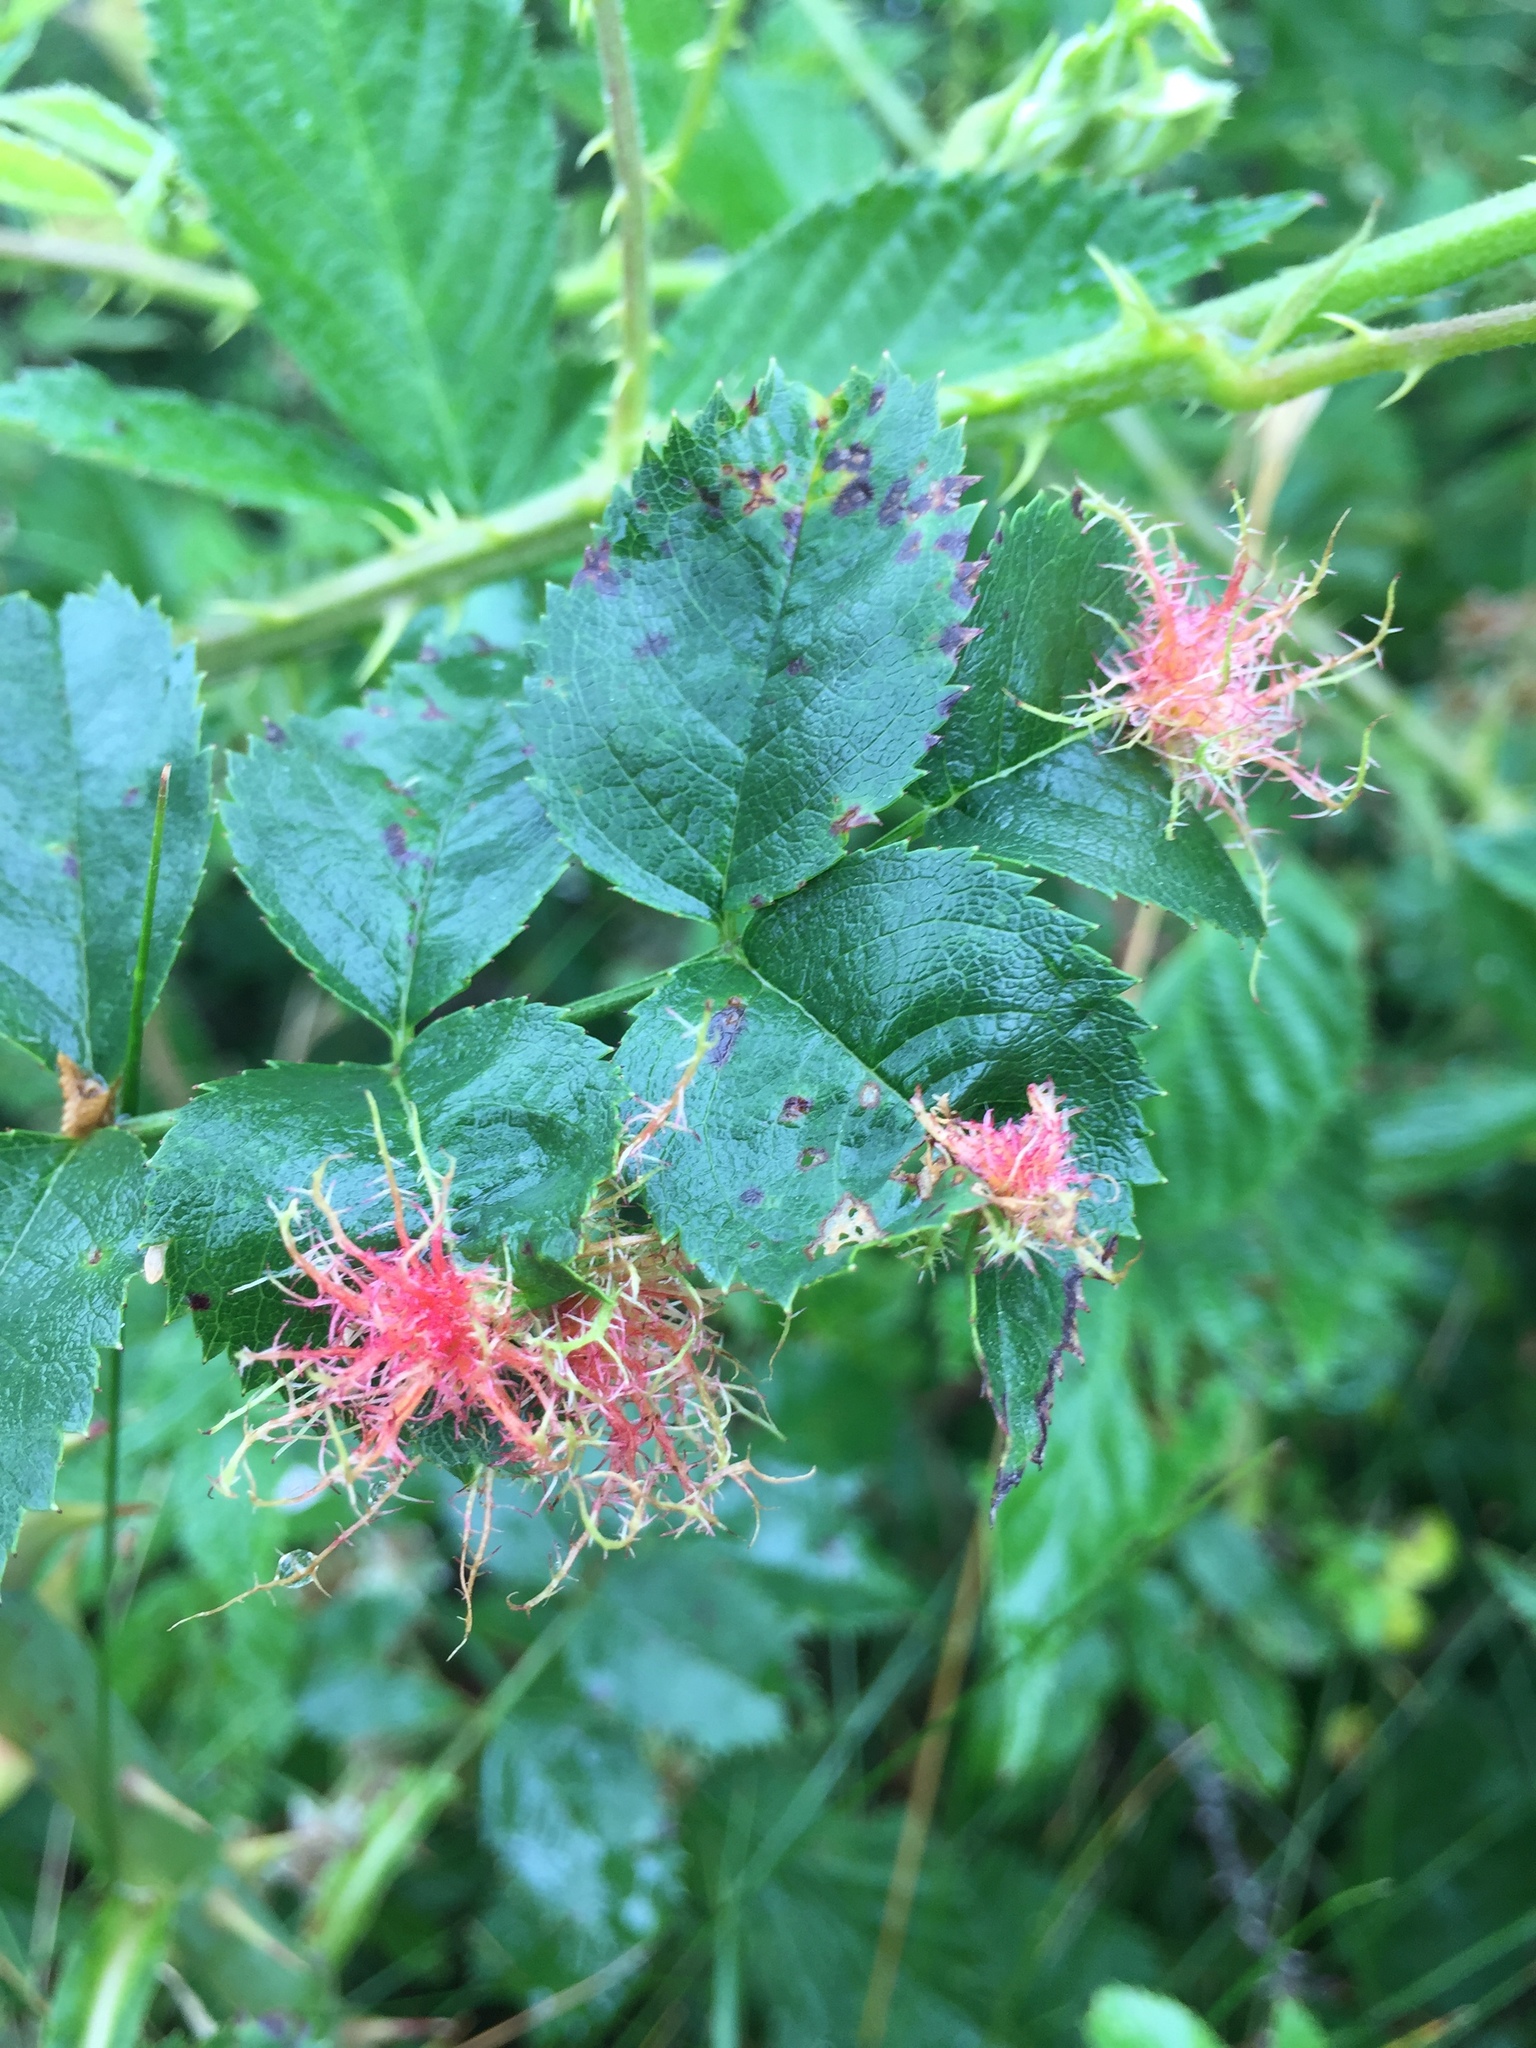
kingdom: Animalia
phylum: Arthropoda
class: Insecta
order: Hymenoptera
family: Cynipidae
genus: Diplolepis
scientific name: Diplolepis rosae
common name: Bedeguar gall
